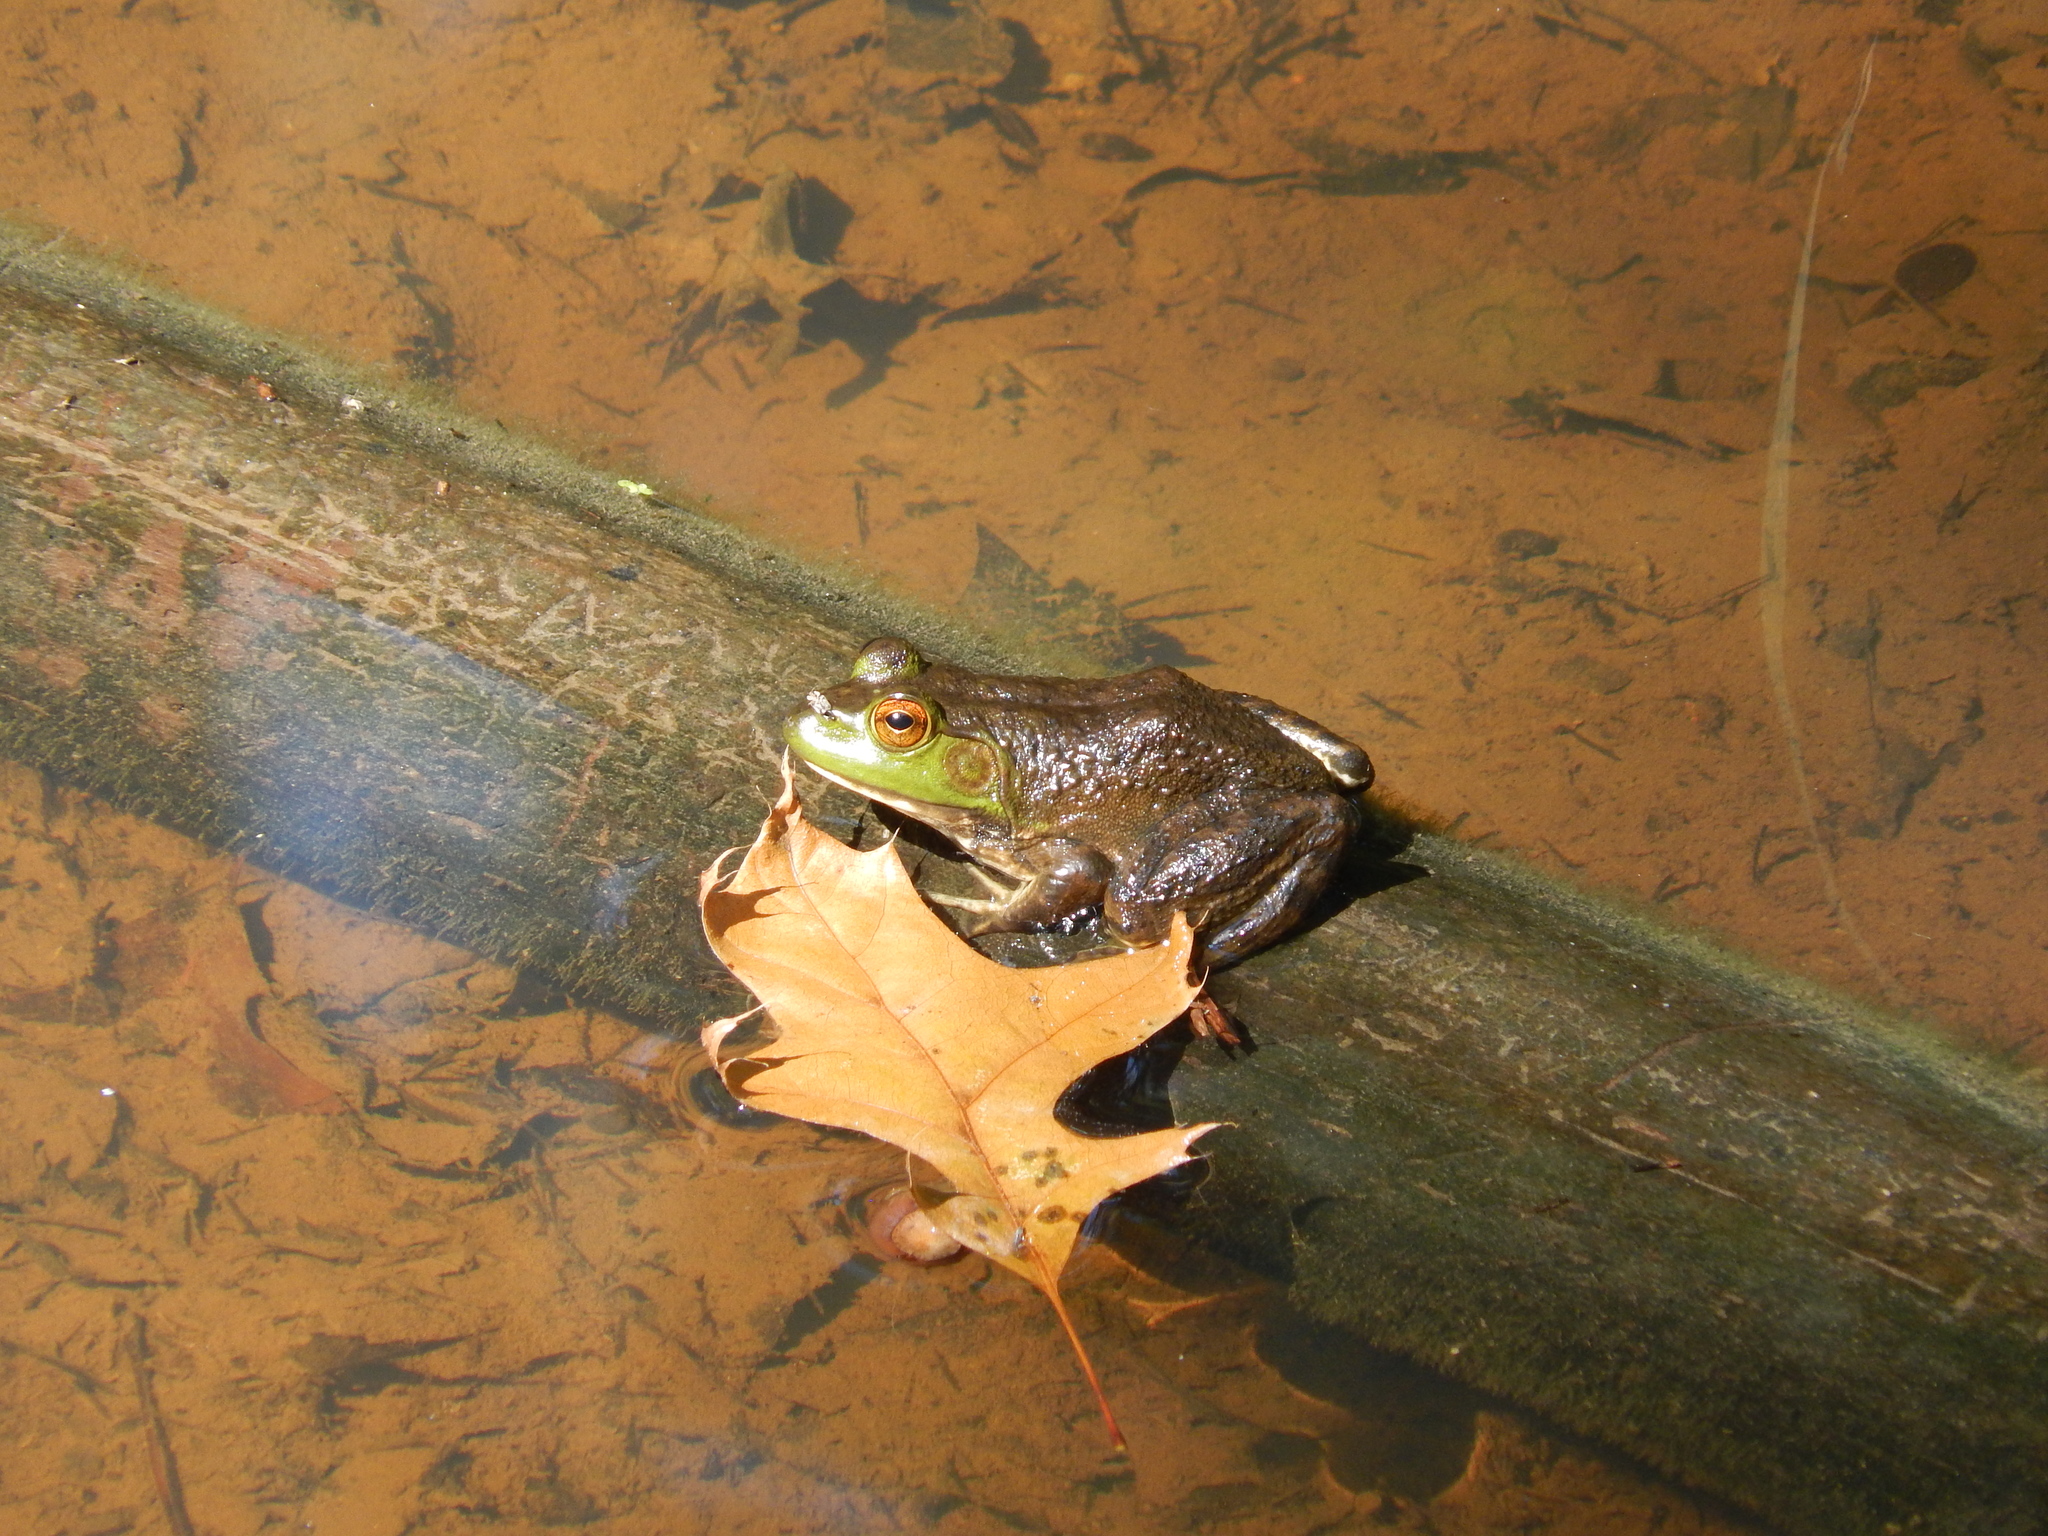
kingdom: Animalia
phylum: Chordata
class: Amphibia
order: Anura
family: Ranidae
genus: Lithobates
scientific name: Lithobates catesbeianus
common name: American bullfrog
